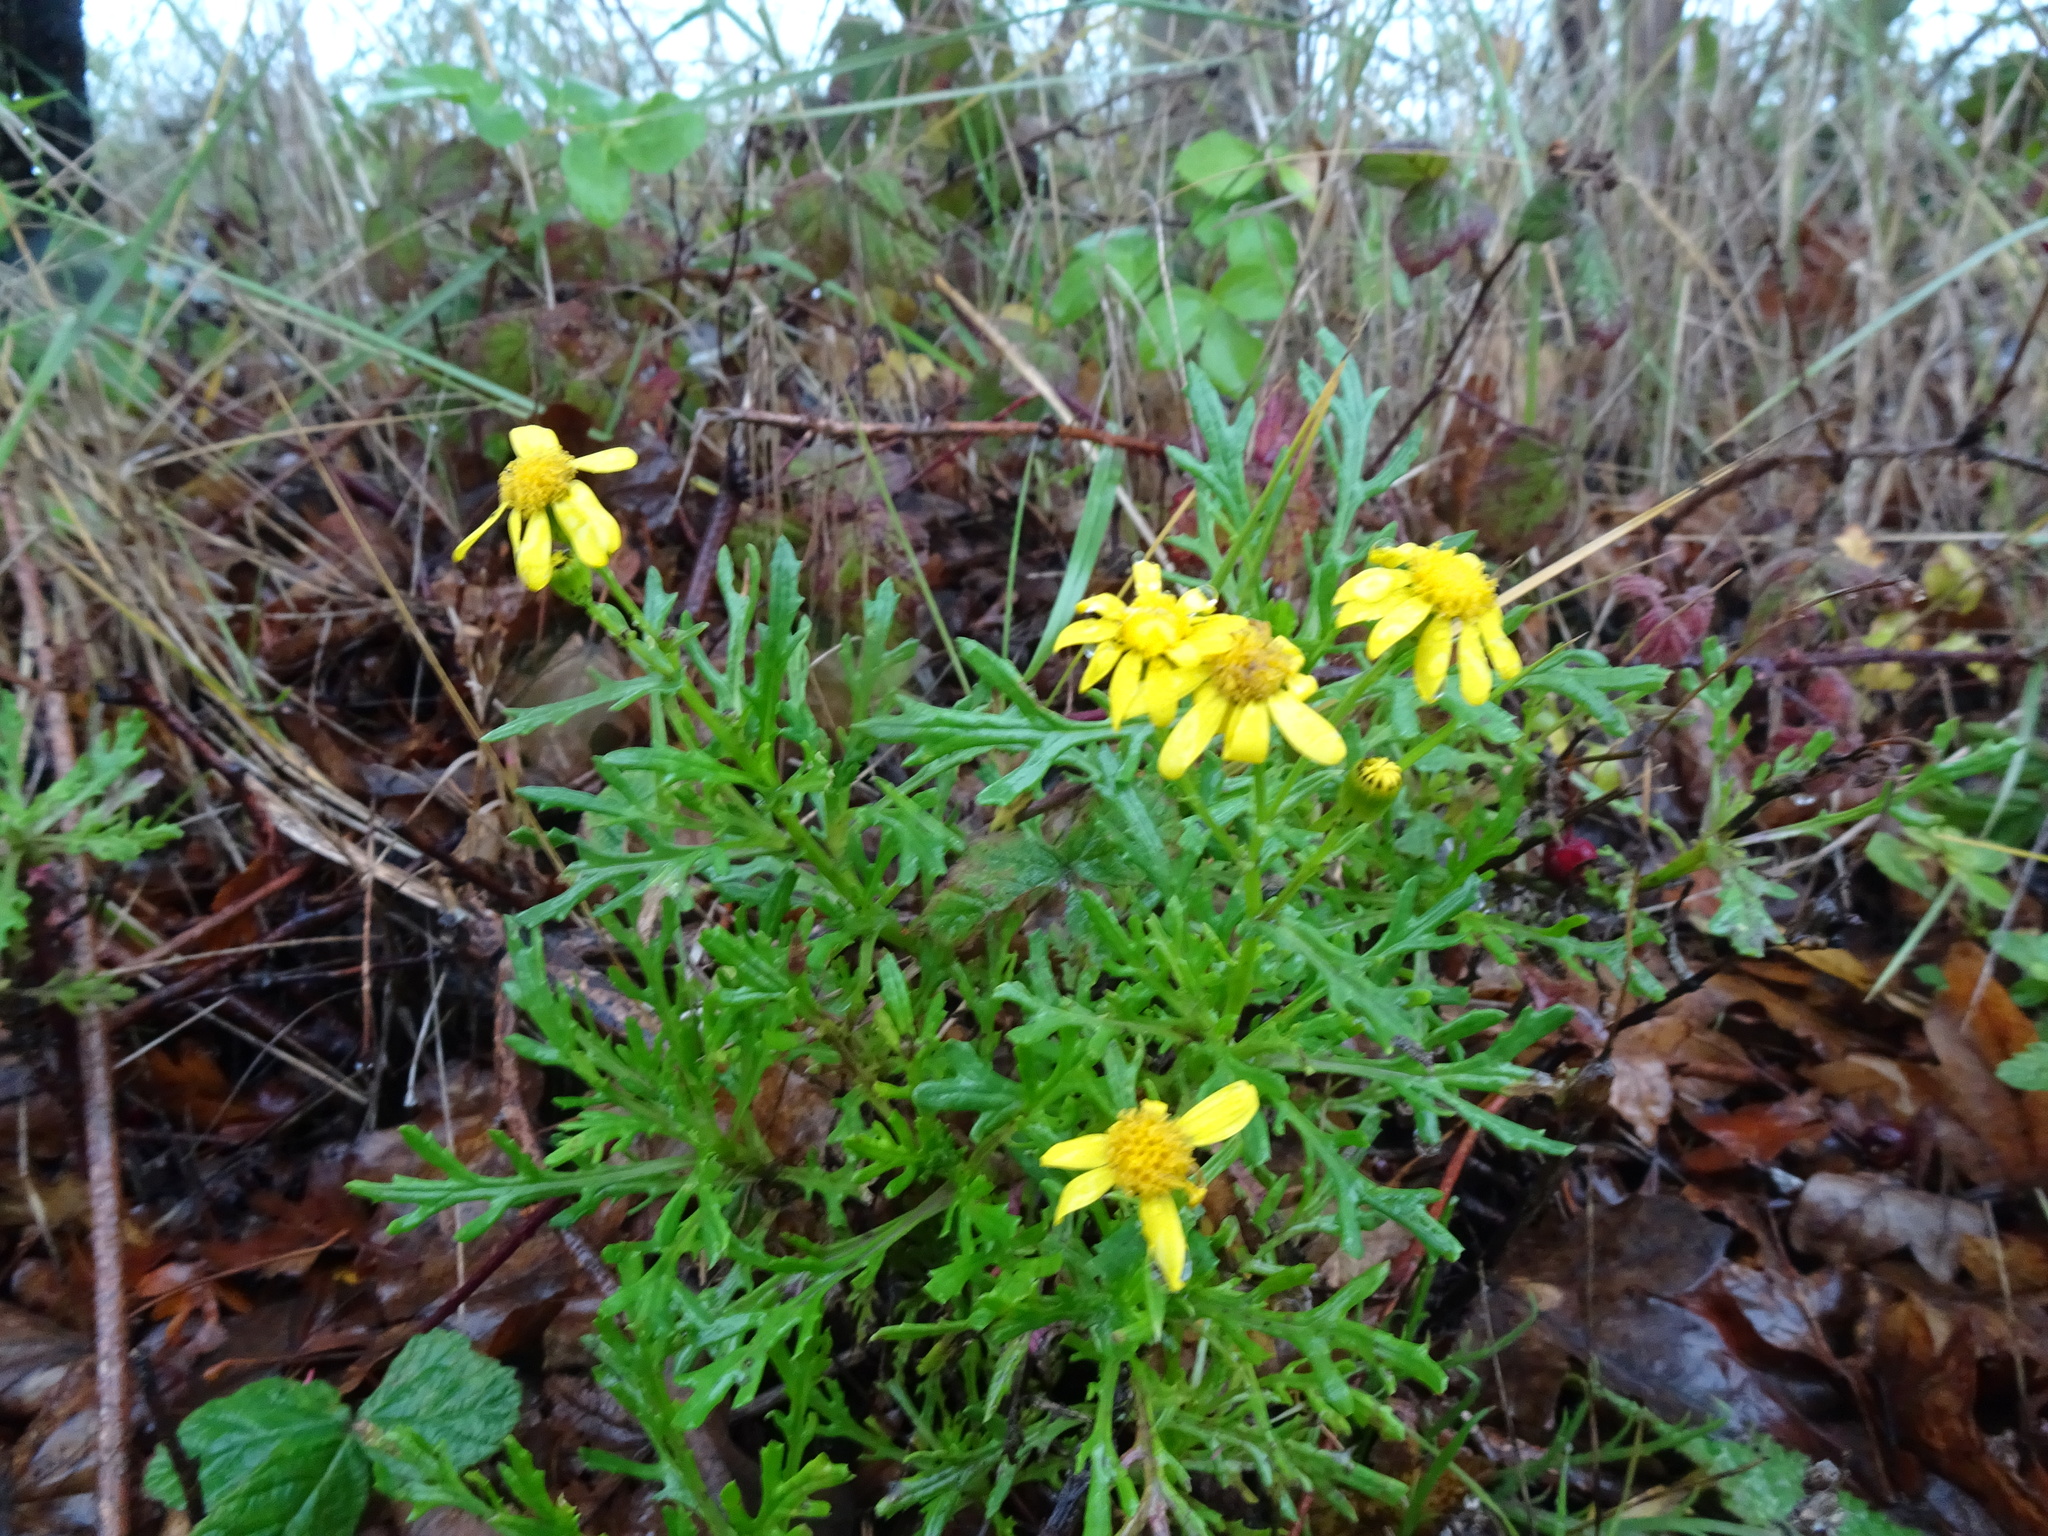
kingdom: Plantae
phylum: Tracheophyta
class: Magnoliopsida
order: Asterales
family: Asteraceae
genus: Senecio
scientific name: Senecio squalidus
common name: Oxford ragwort
